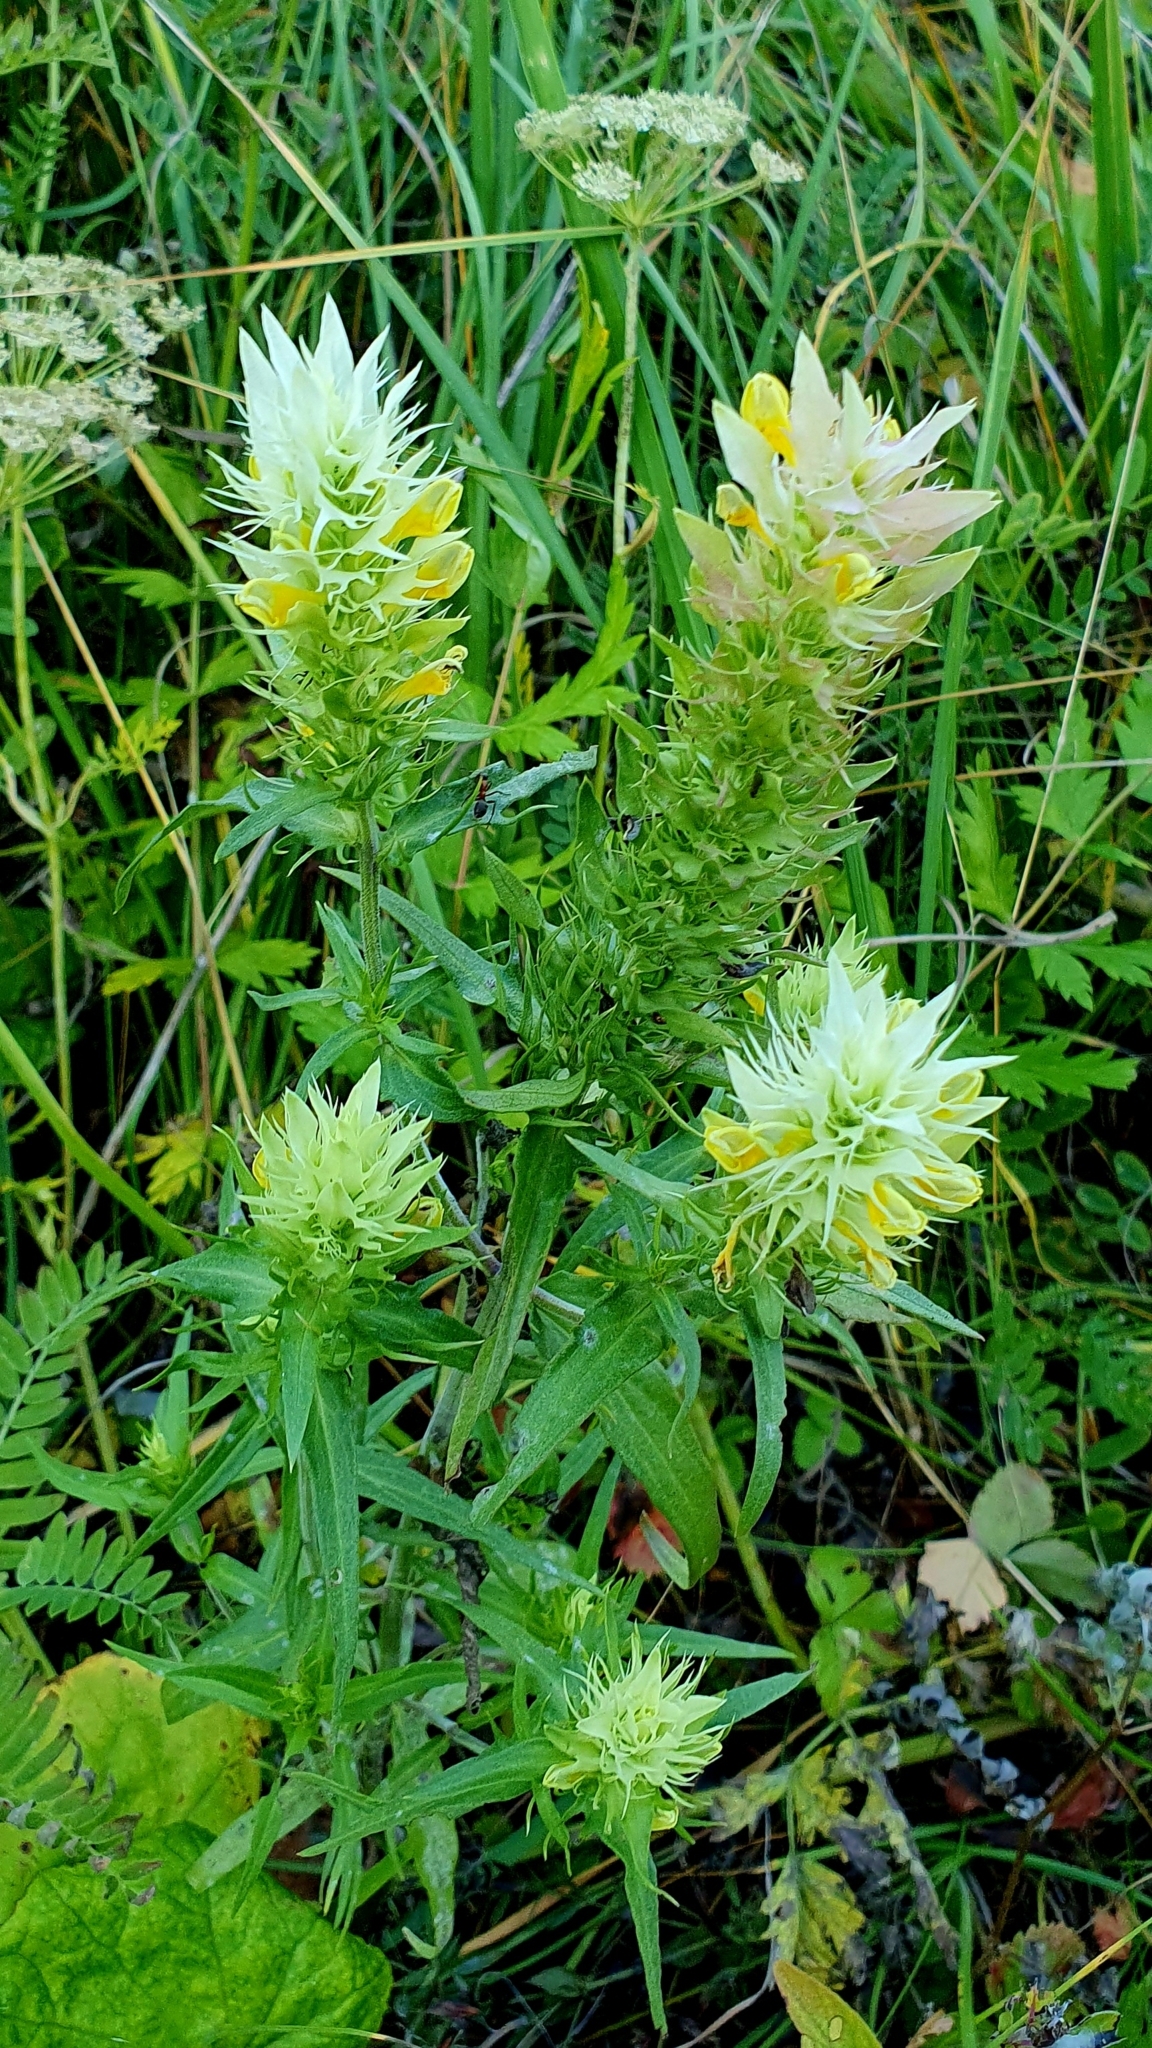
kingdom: Plantae
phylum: Tracheophyta
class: Magnoliopsida
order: Lamiales
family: Orobanchaceae
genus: Melampyrum
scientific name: Melampyrum arvense
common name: Field cow-wheat
